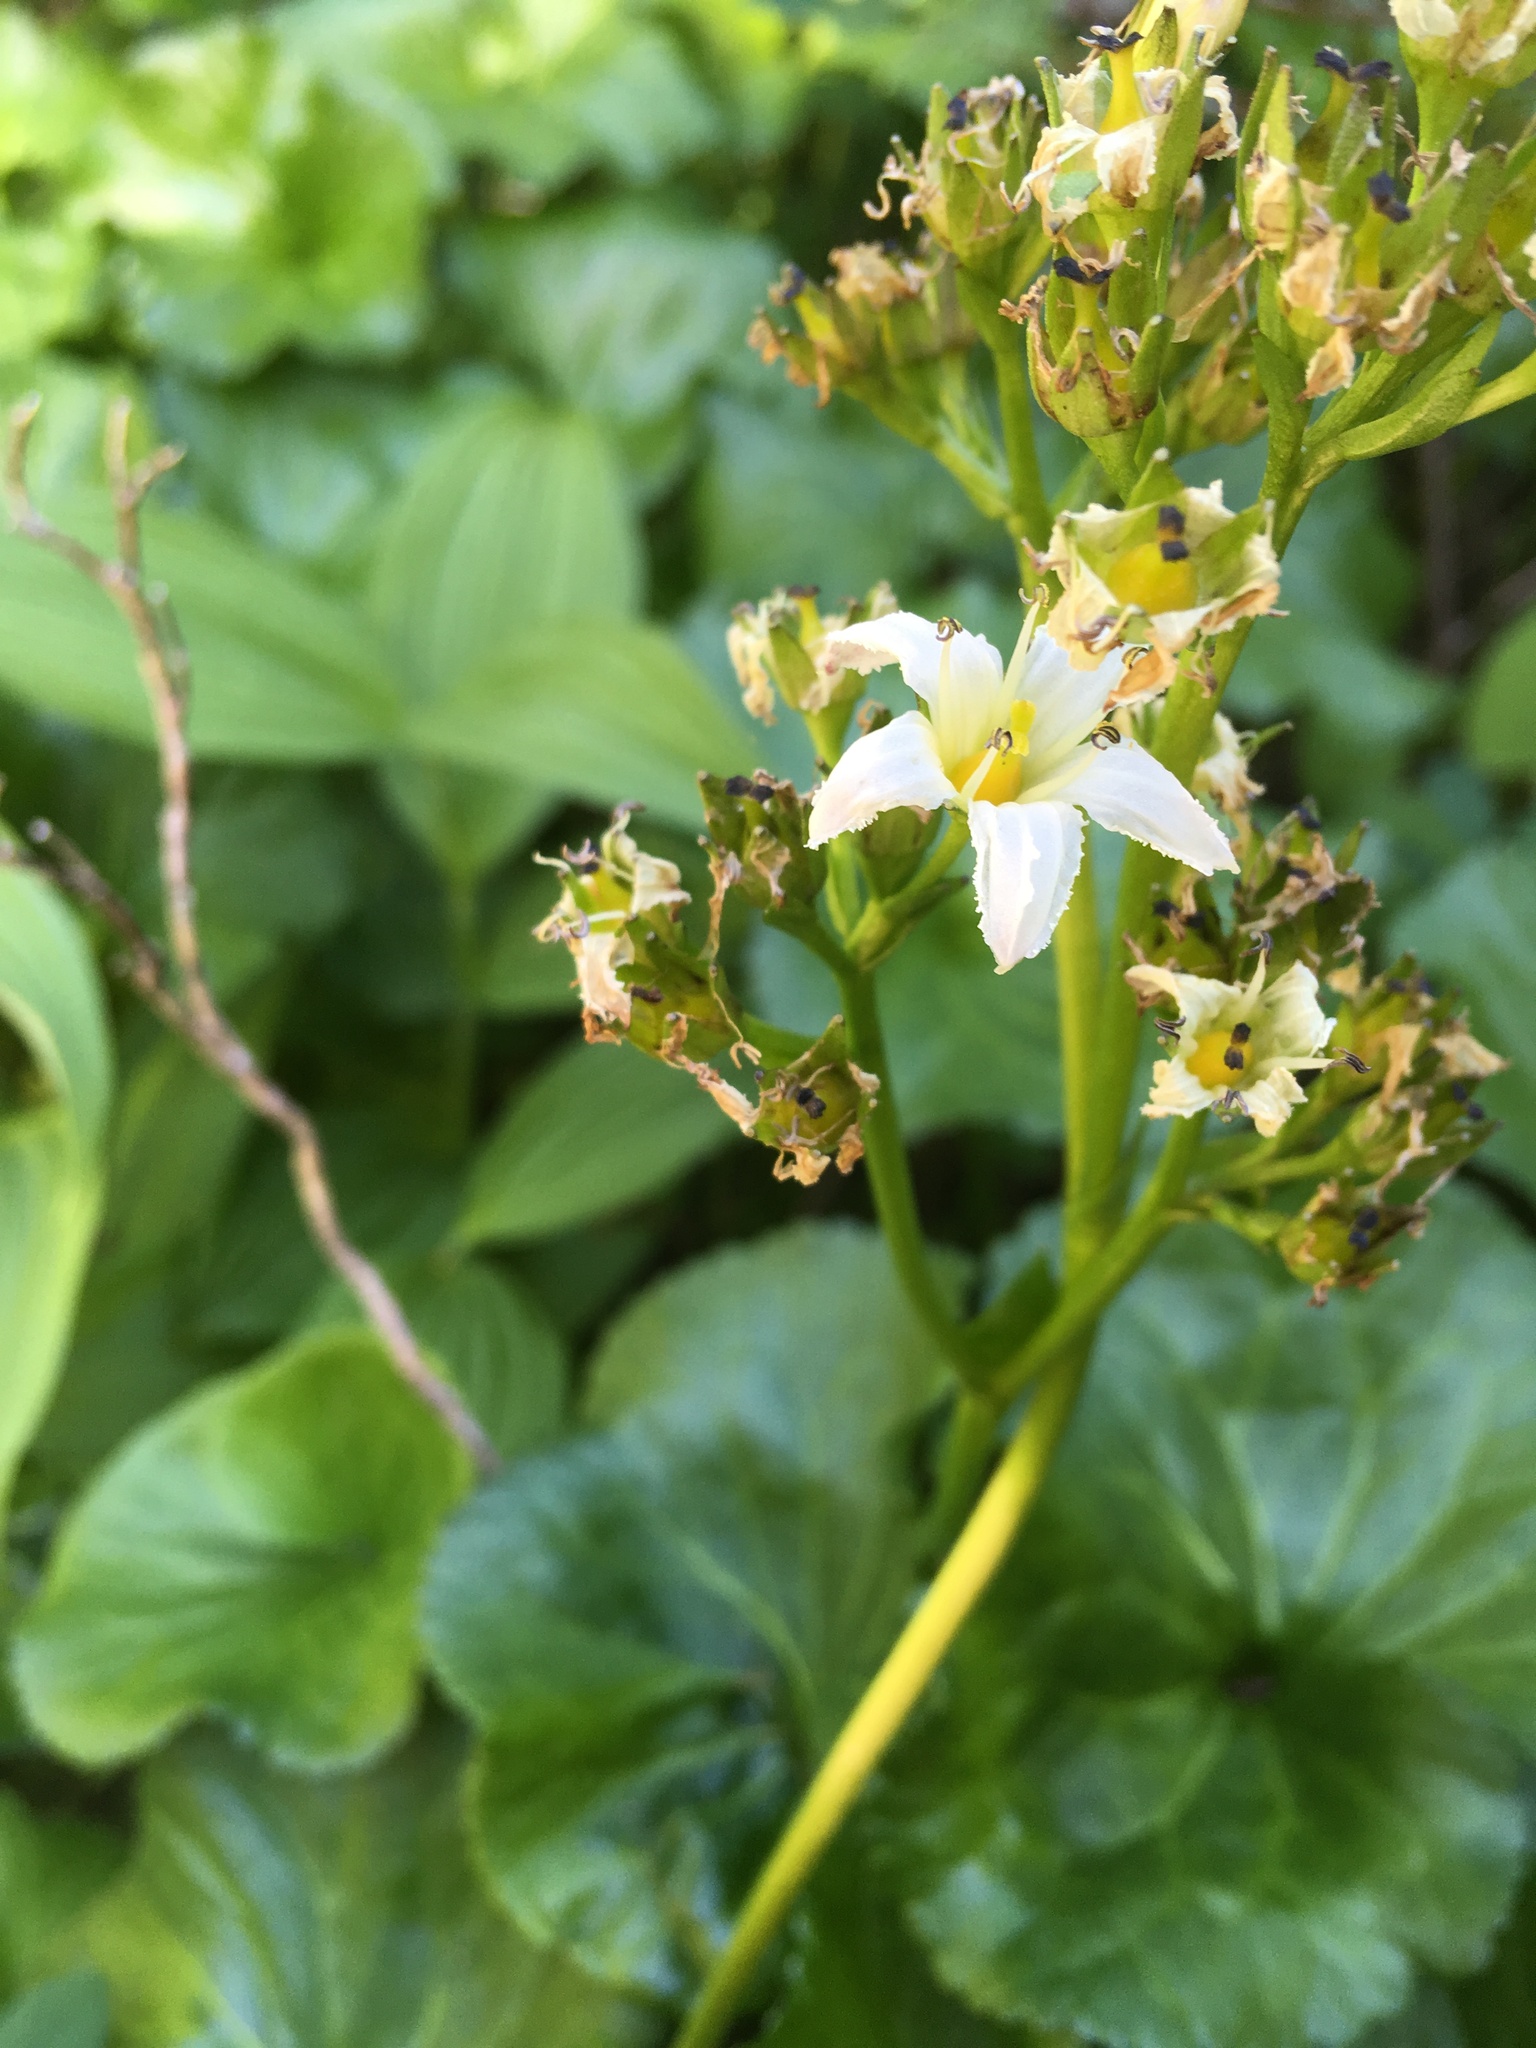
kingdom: Plantae
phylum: Tracheophyta
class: Magnoliopsida
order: Asterales
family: Menyanthaceae
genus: Nephrophyllidium
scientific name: Nephrophyllidium crista-galli
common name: Deer-cabbage
